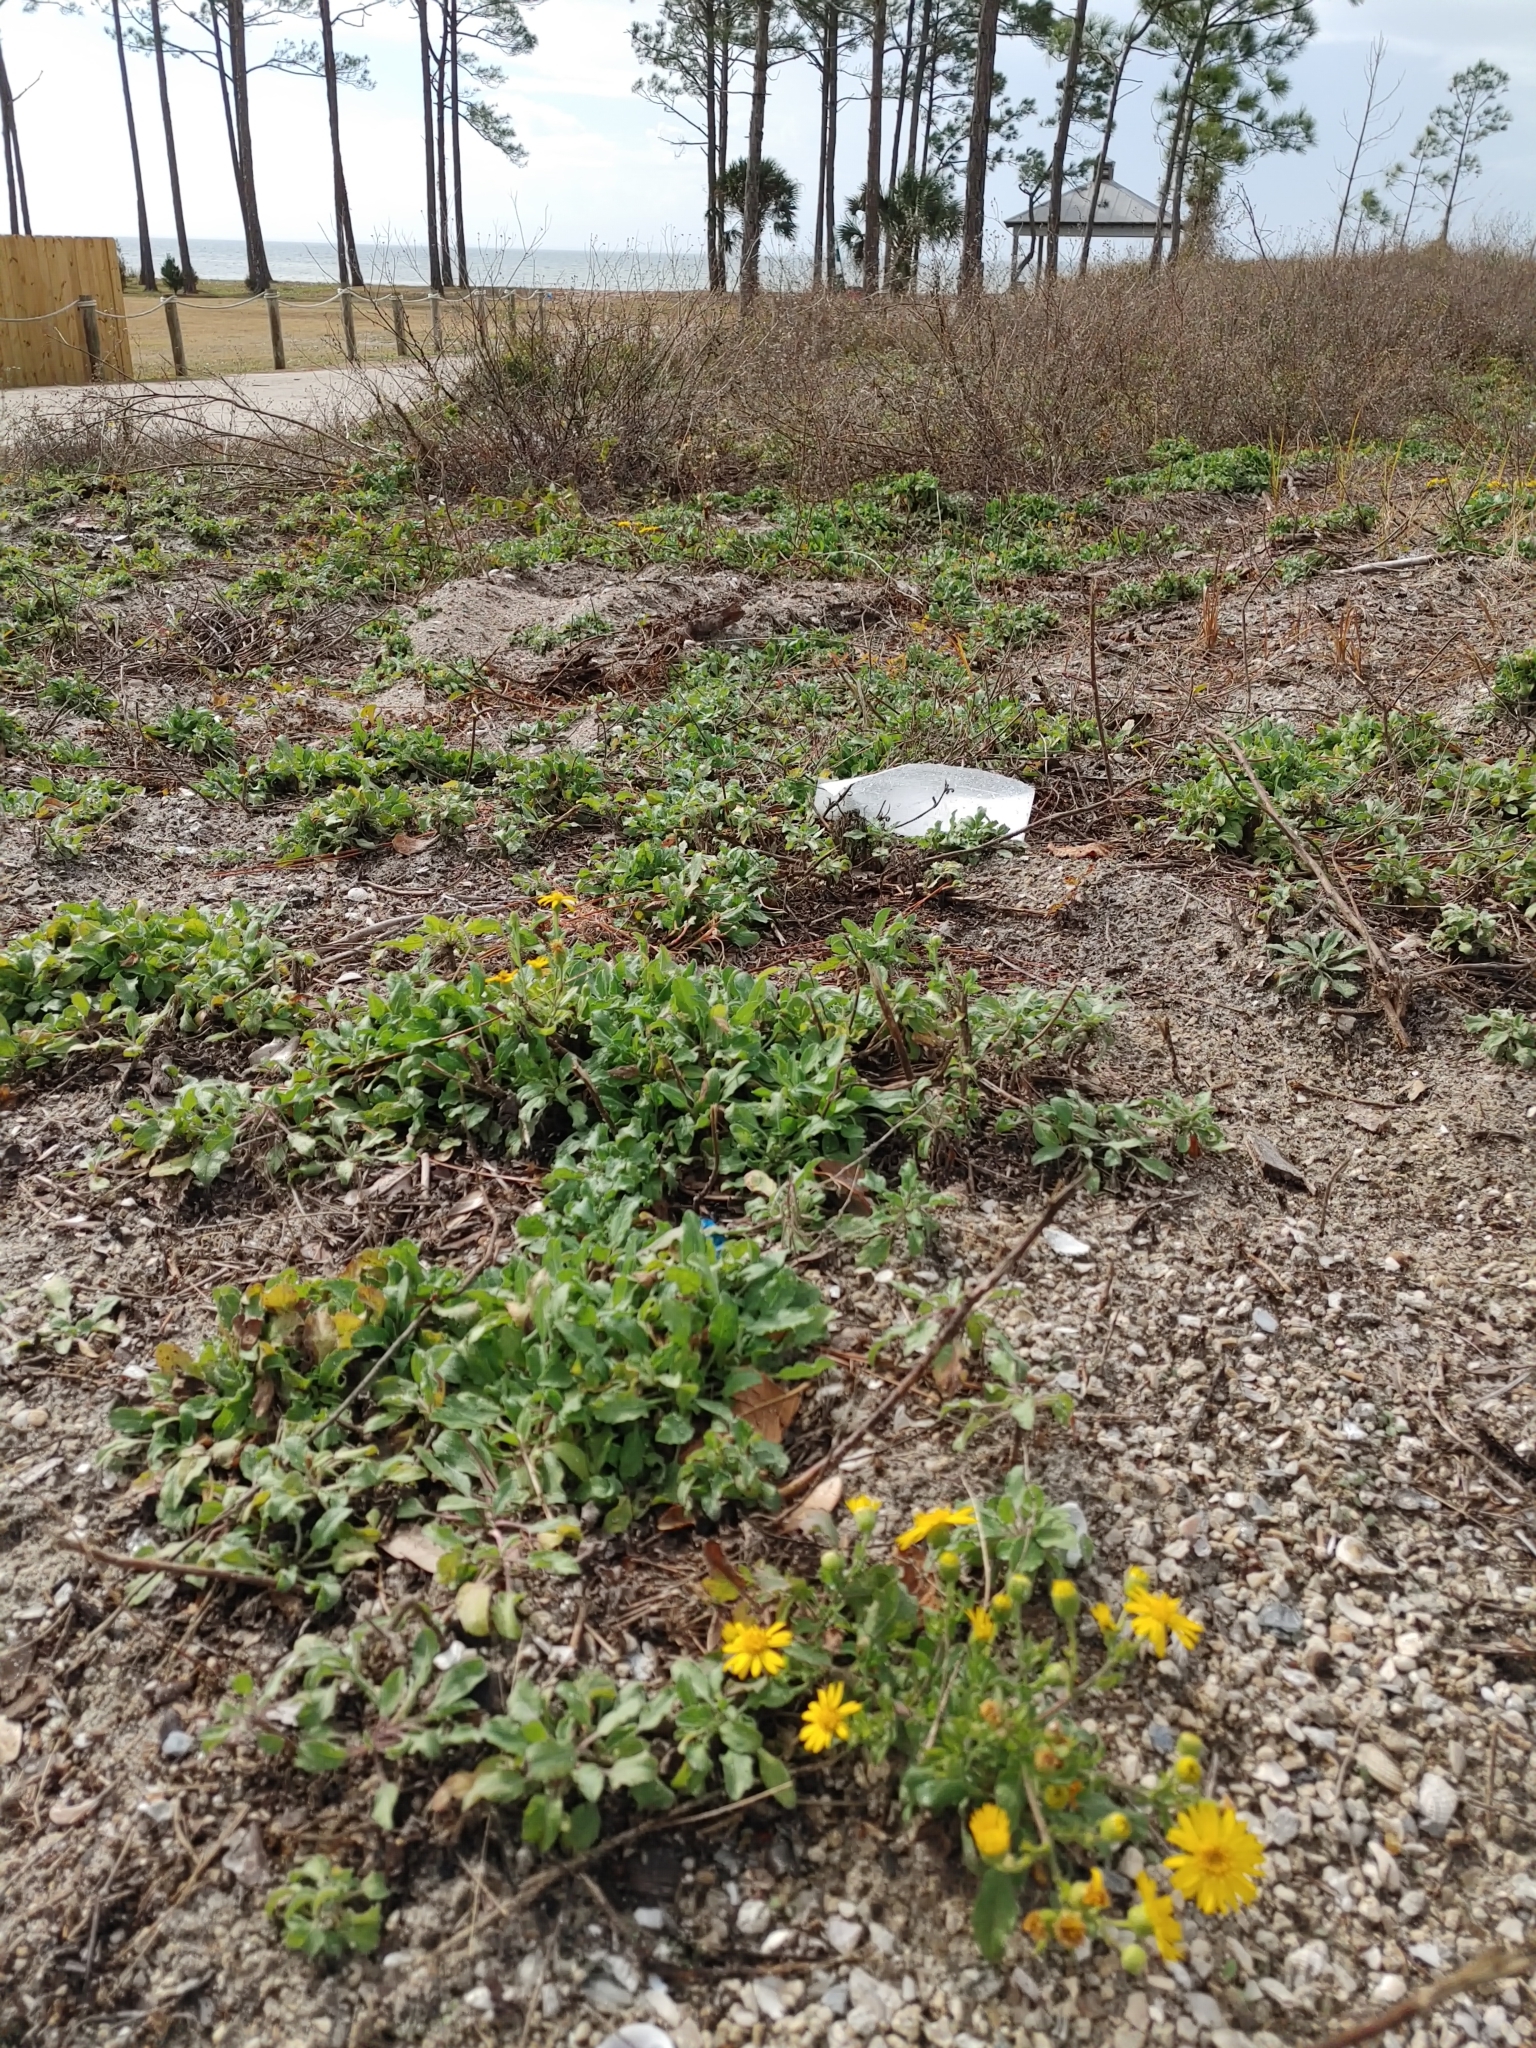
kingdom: Plantae
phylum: Tracheophyta
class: Magnoliopsida
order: Asterales
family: Asteraceae
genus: Heterotheca
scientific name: Heterotheca subaxillaris
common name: Camphorweed
